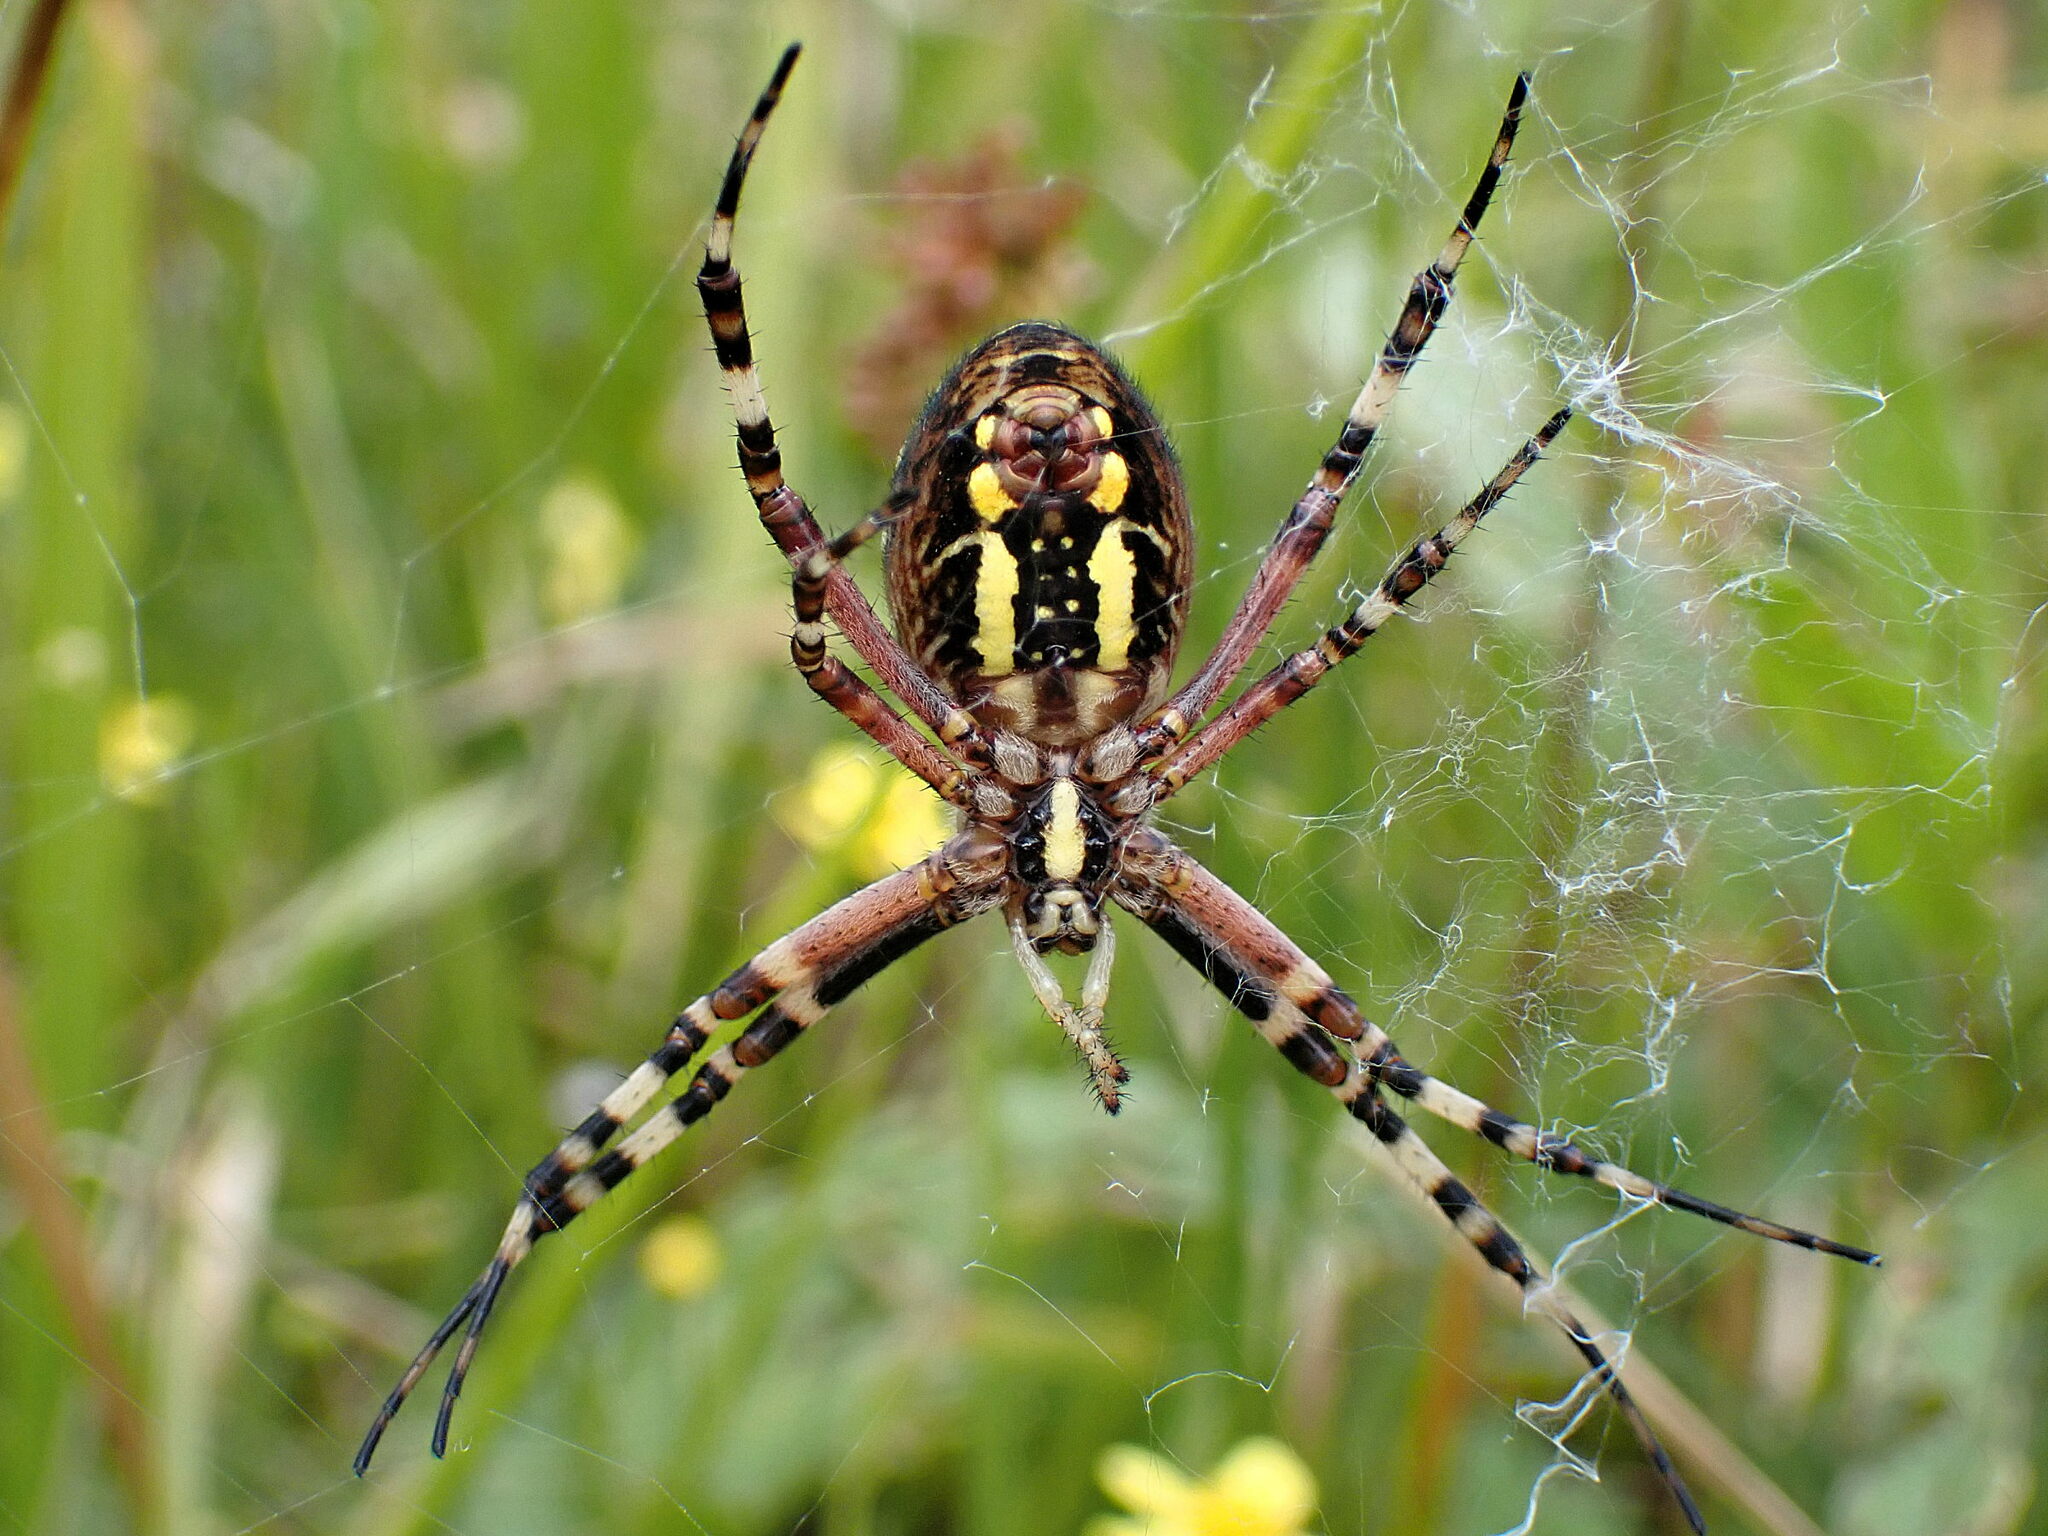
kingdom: Animalia
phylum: Arthropoda
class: Arachnida
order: Araneae
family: Araneidae
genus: Argiope
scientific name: Argiope bruennichi
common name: Wasp spider
